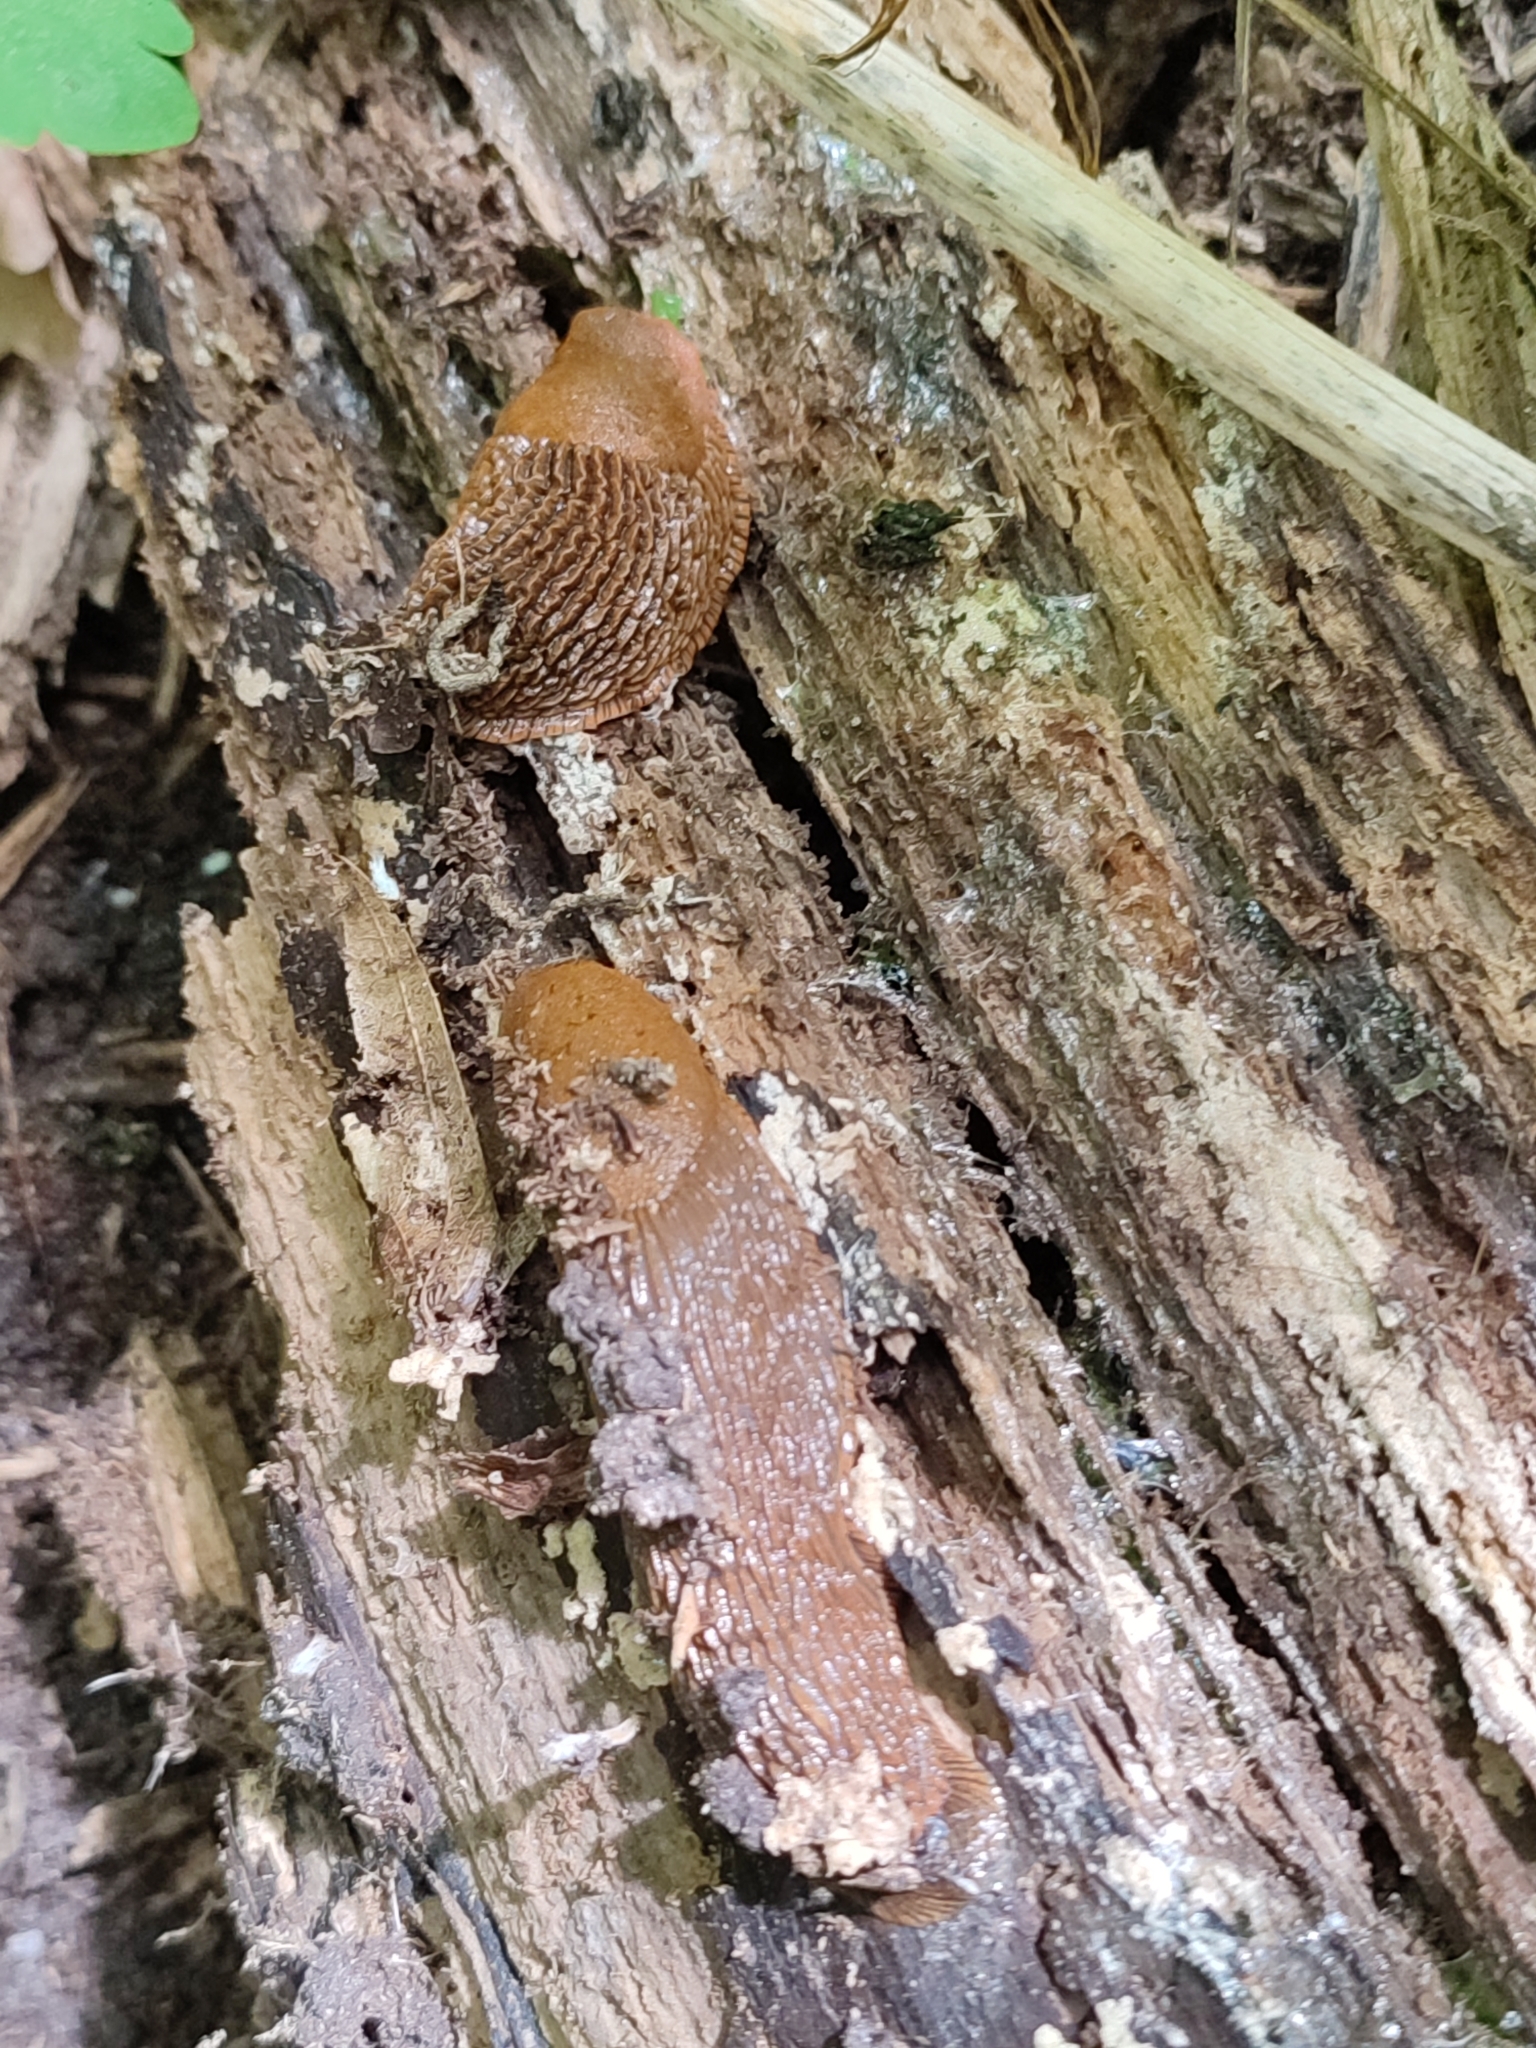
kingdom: Animalia
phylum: Mollusca
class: Gastropoda
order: Stylommatophora
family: Arionidae
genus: Arion
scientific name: Arion vulgaris
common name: Lusitanian slug
